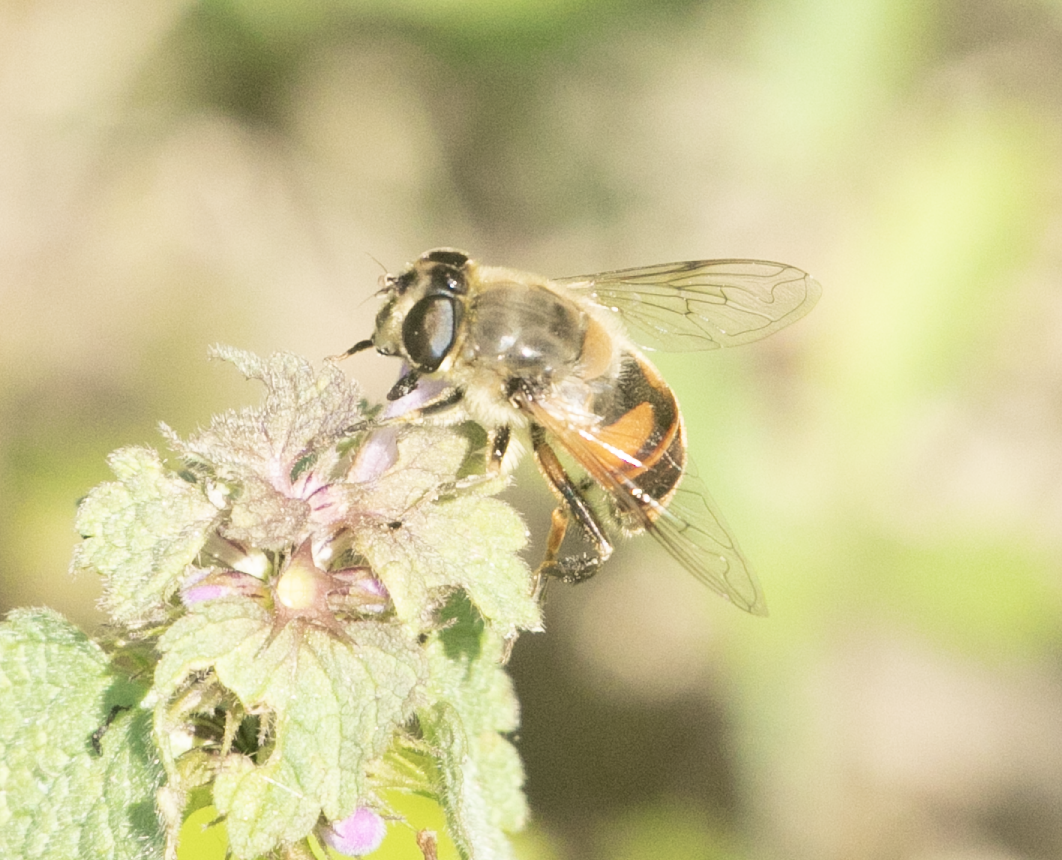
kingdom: Animalia
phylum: Arthropoda
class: Insecta
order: Diptera
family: Syrphidae
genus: Eristalis
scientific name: Eristalis tenax
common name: Drone fly
